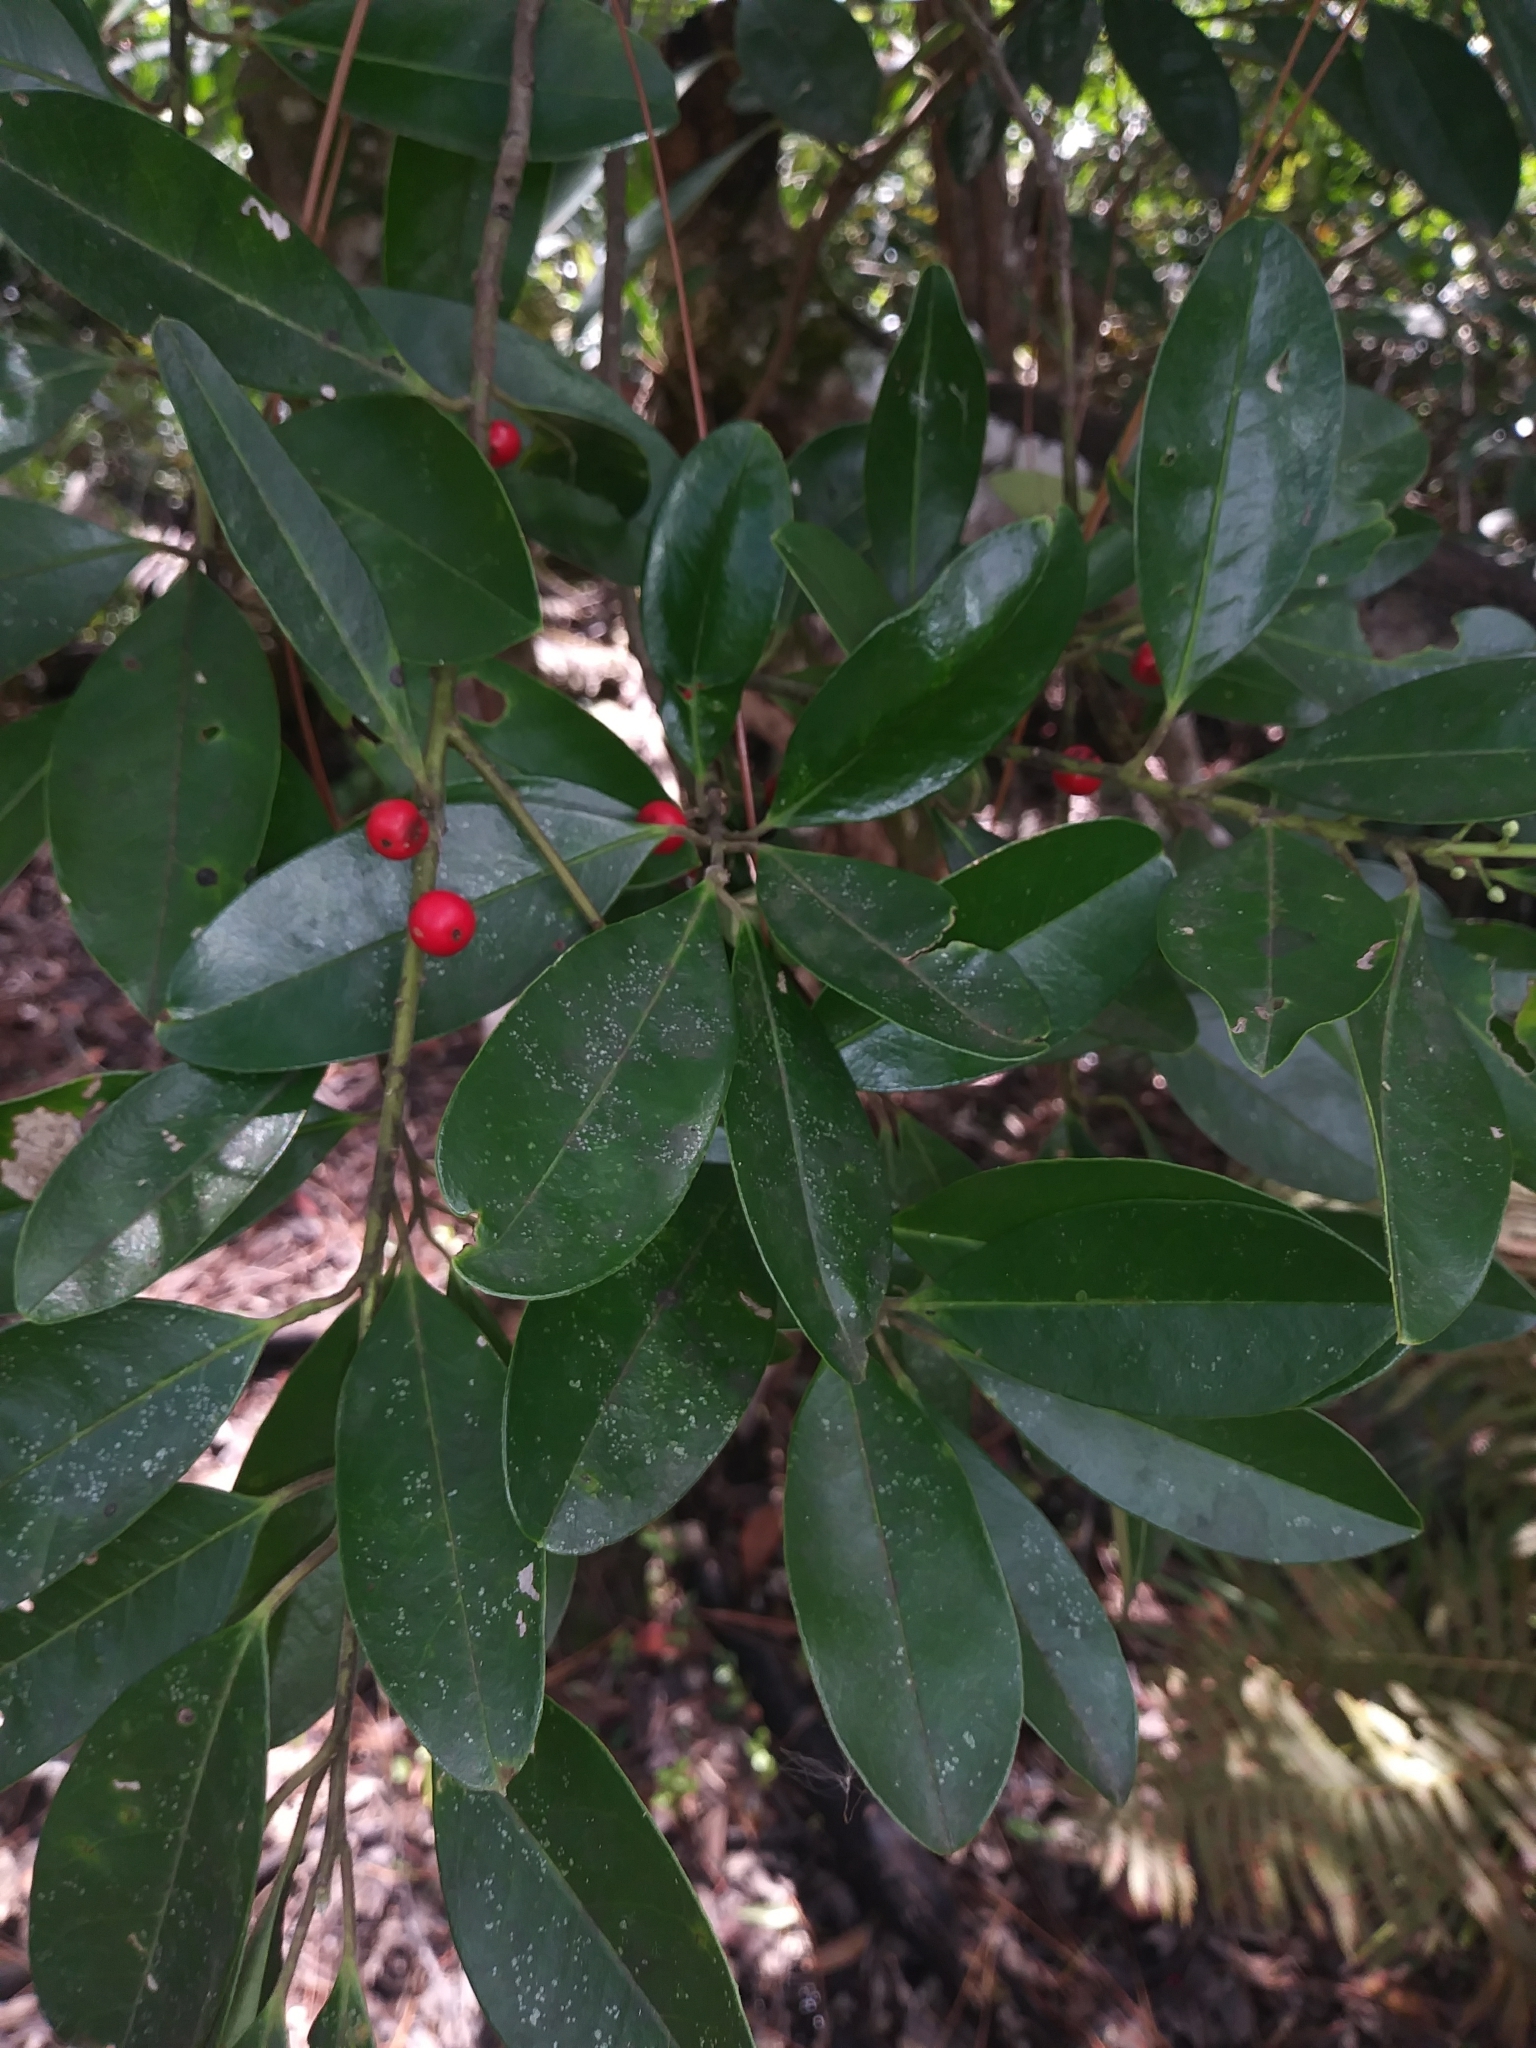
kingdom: Plantae
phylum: Tracheophyta
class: Magnoliopsida
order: Aquifoliales
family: Aquifoliaceae
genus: Ilex
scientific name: Ilex cassine
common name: Dahoon
